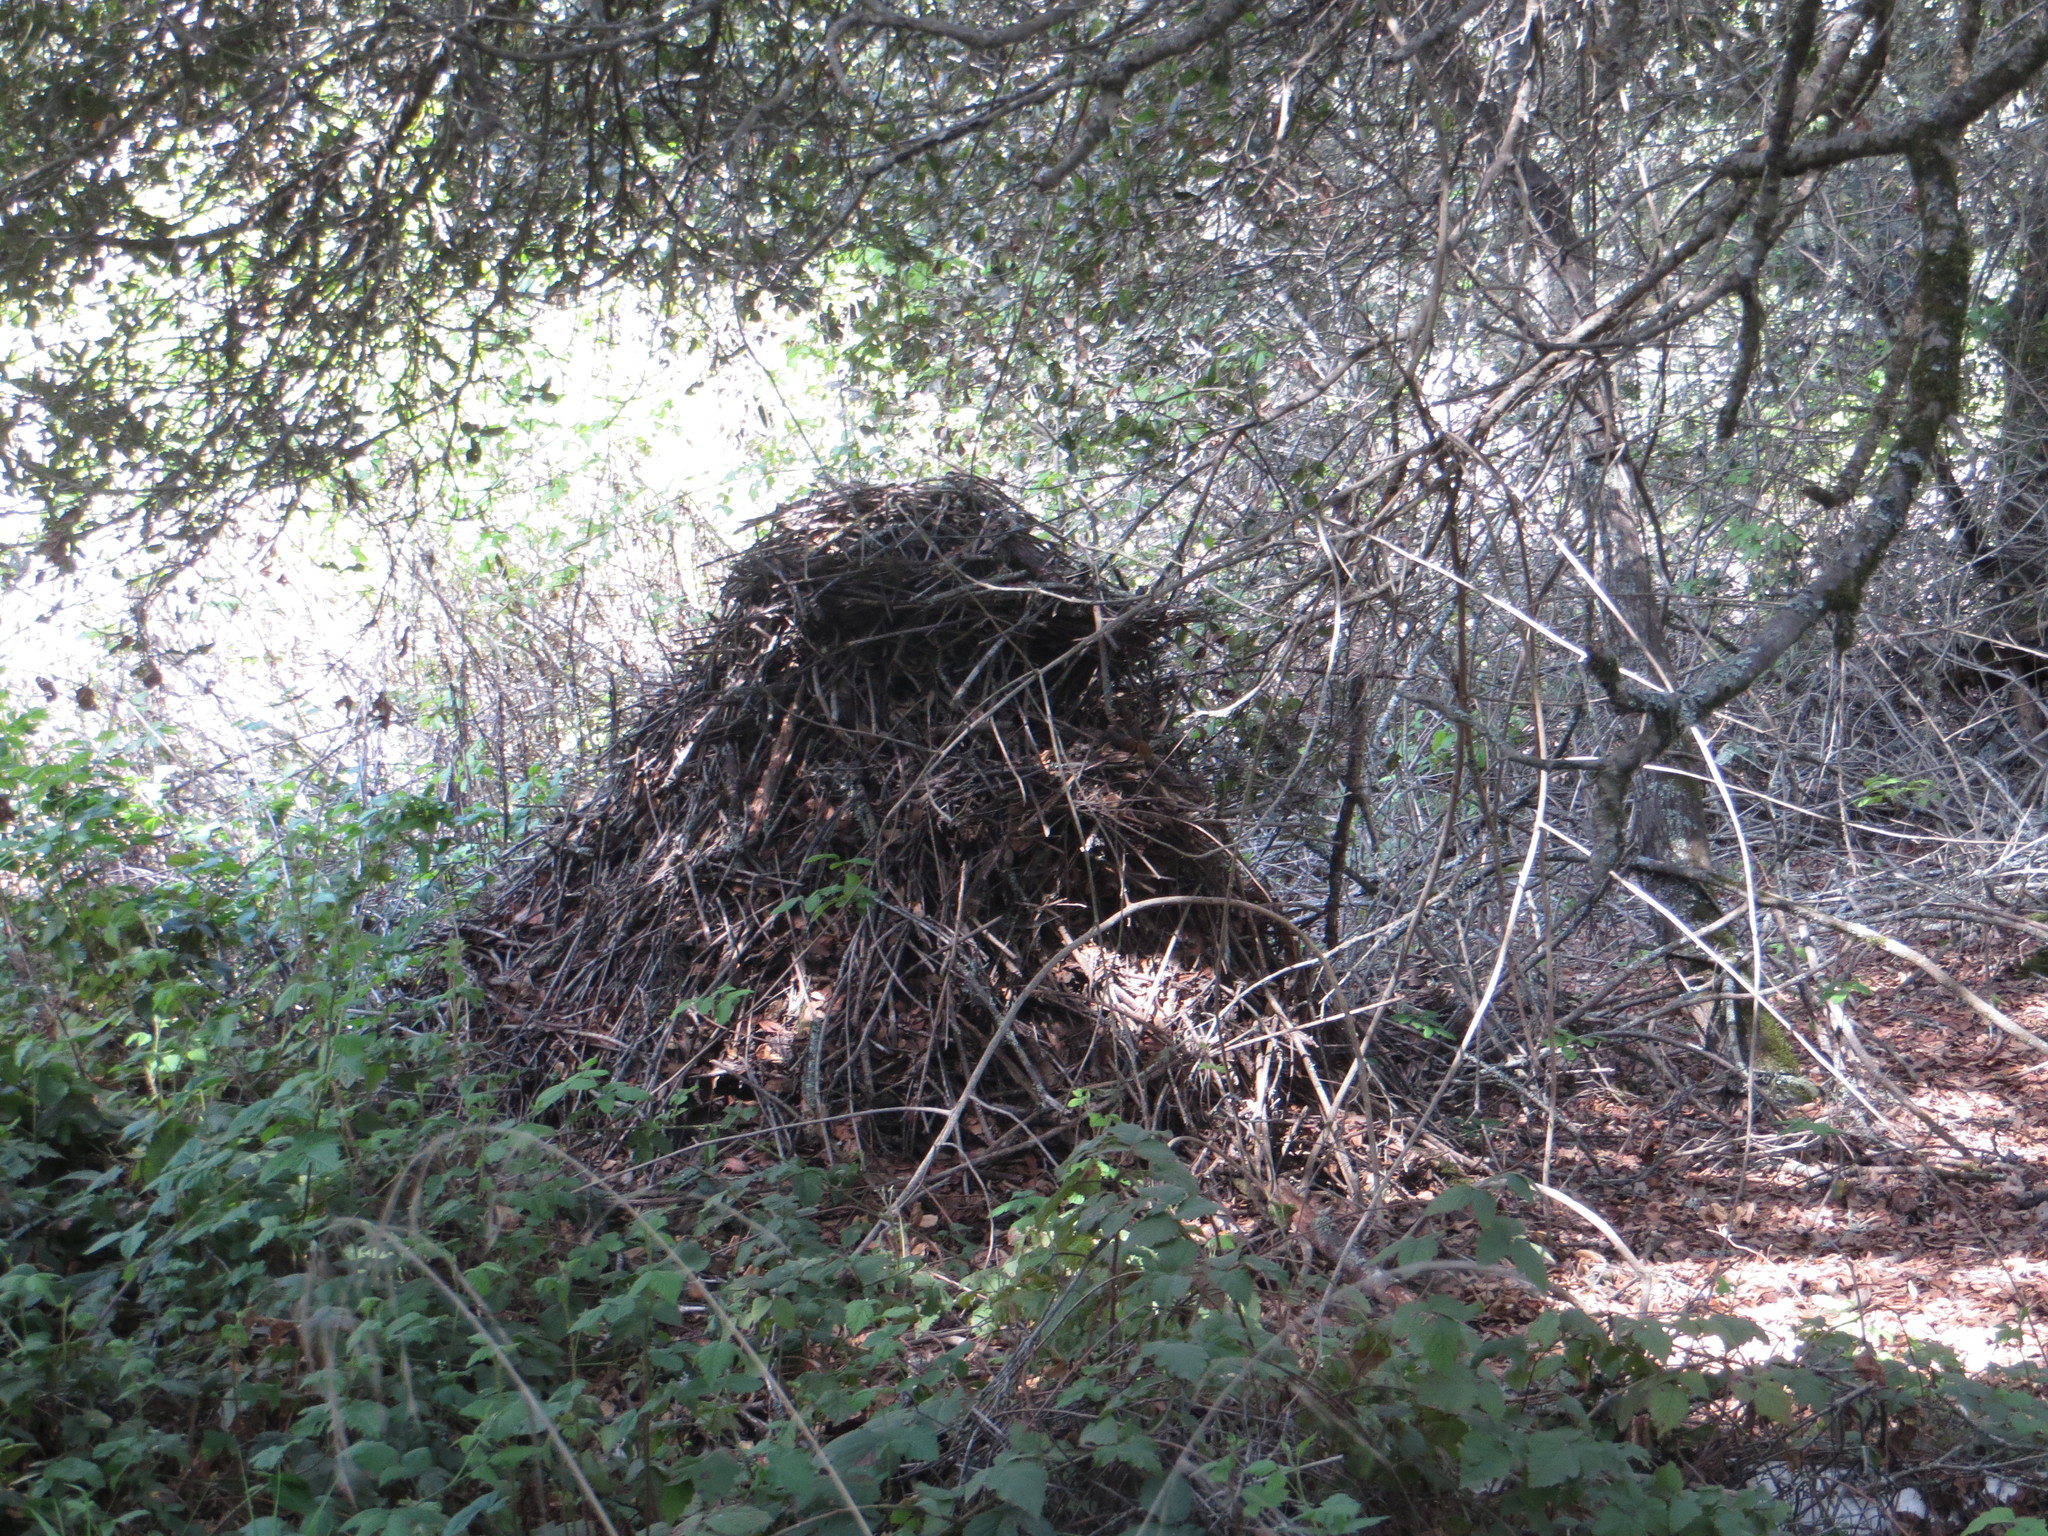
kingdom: Animalia
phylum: Chordata
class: Mammalia
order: Rodentia
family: Cricetidae
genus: Neotoma
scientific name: Neotoma fuscipes
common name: Dusky-footed woodrat
